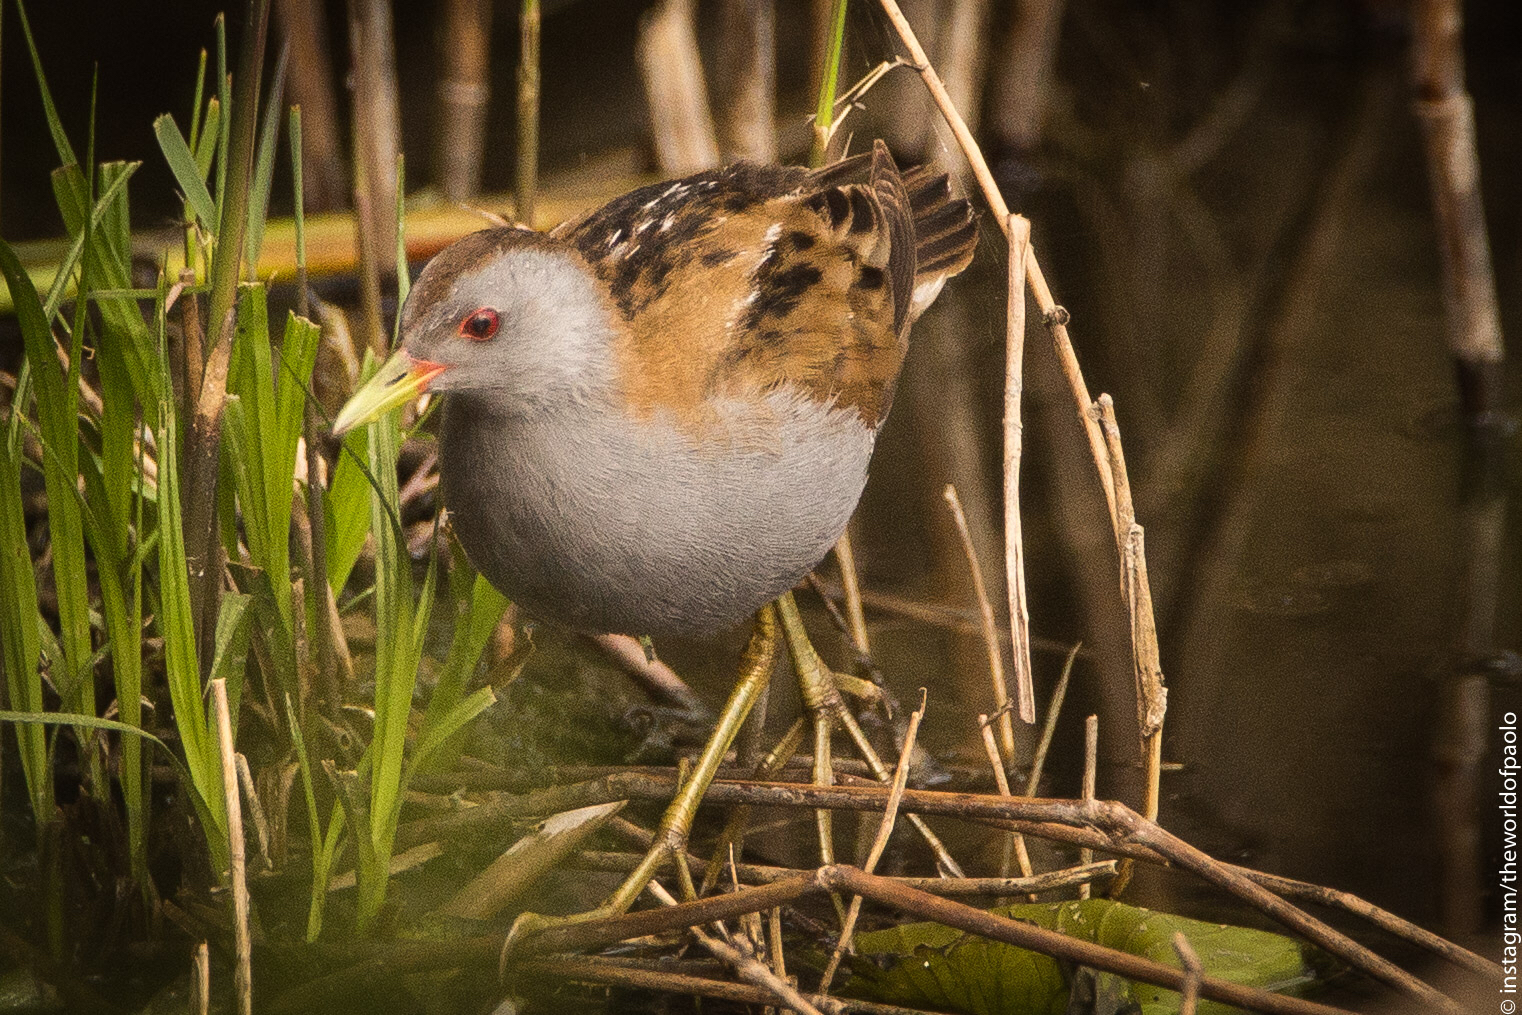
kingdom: Animalia
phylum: Chordata
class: Aves
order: Gruiformes
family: Rallidae
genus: Porzana
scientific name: Porzana parva
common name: Little crake
